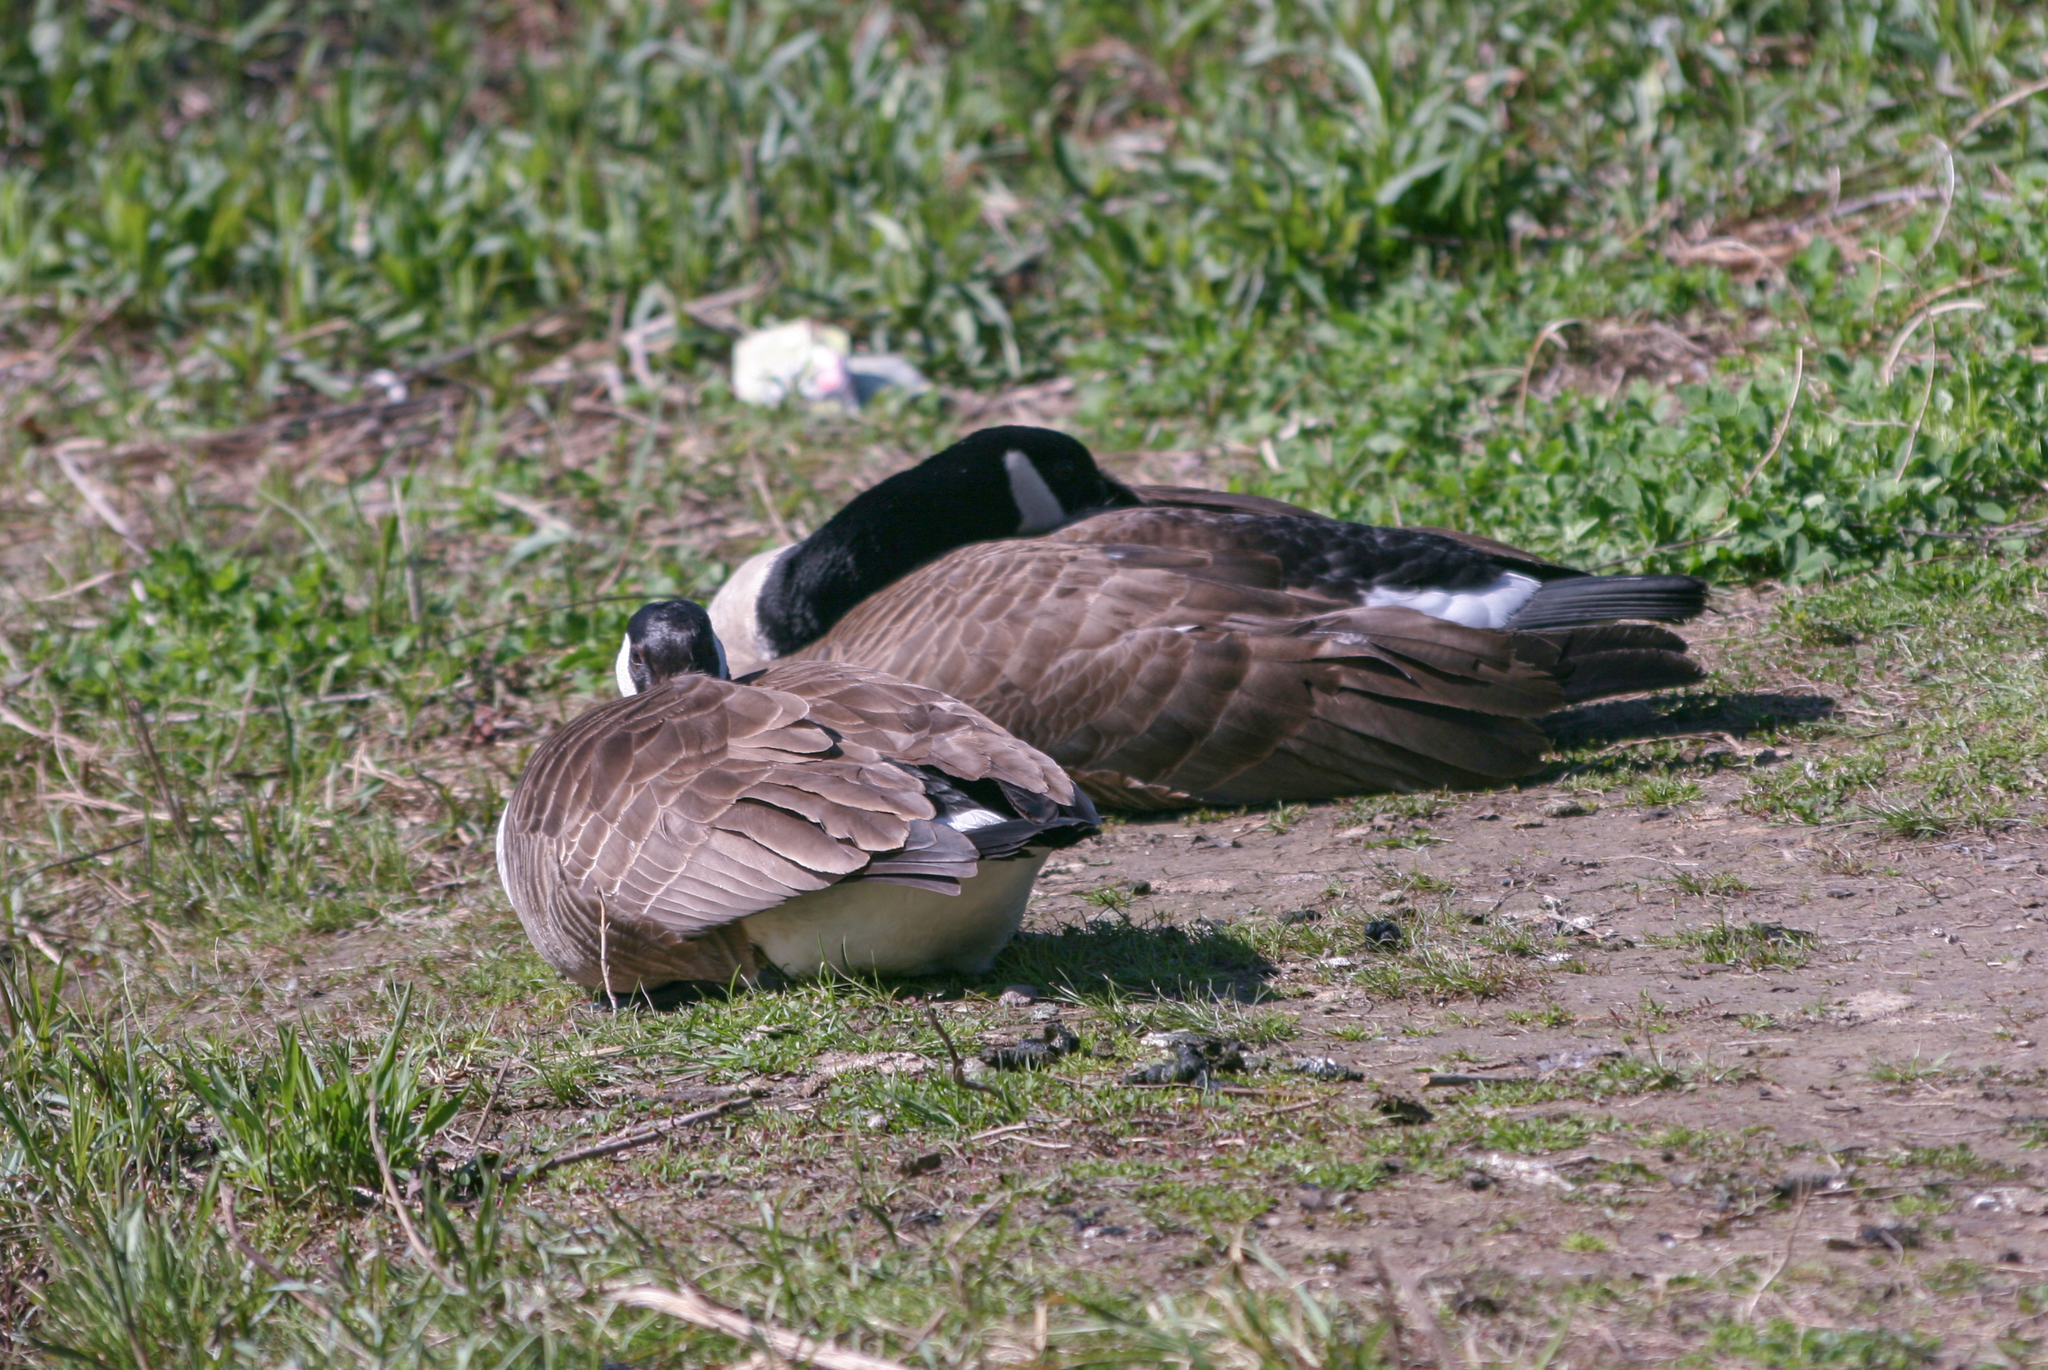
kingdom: Animalia
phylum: Chordata
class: Aves
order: Anseriformes
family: Anatidae
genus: Branta
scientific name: Branta canadensis
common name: Canada goose
